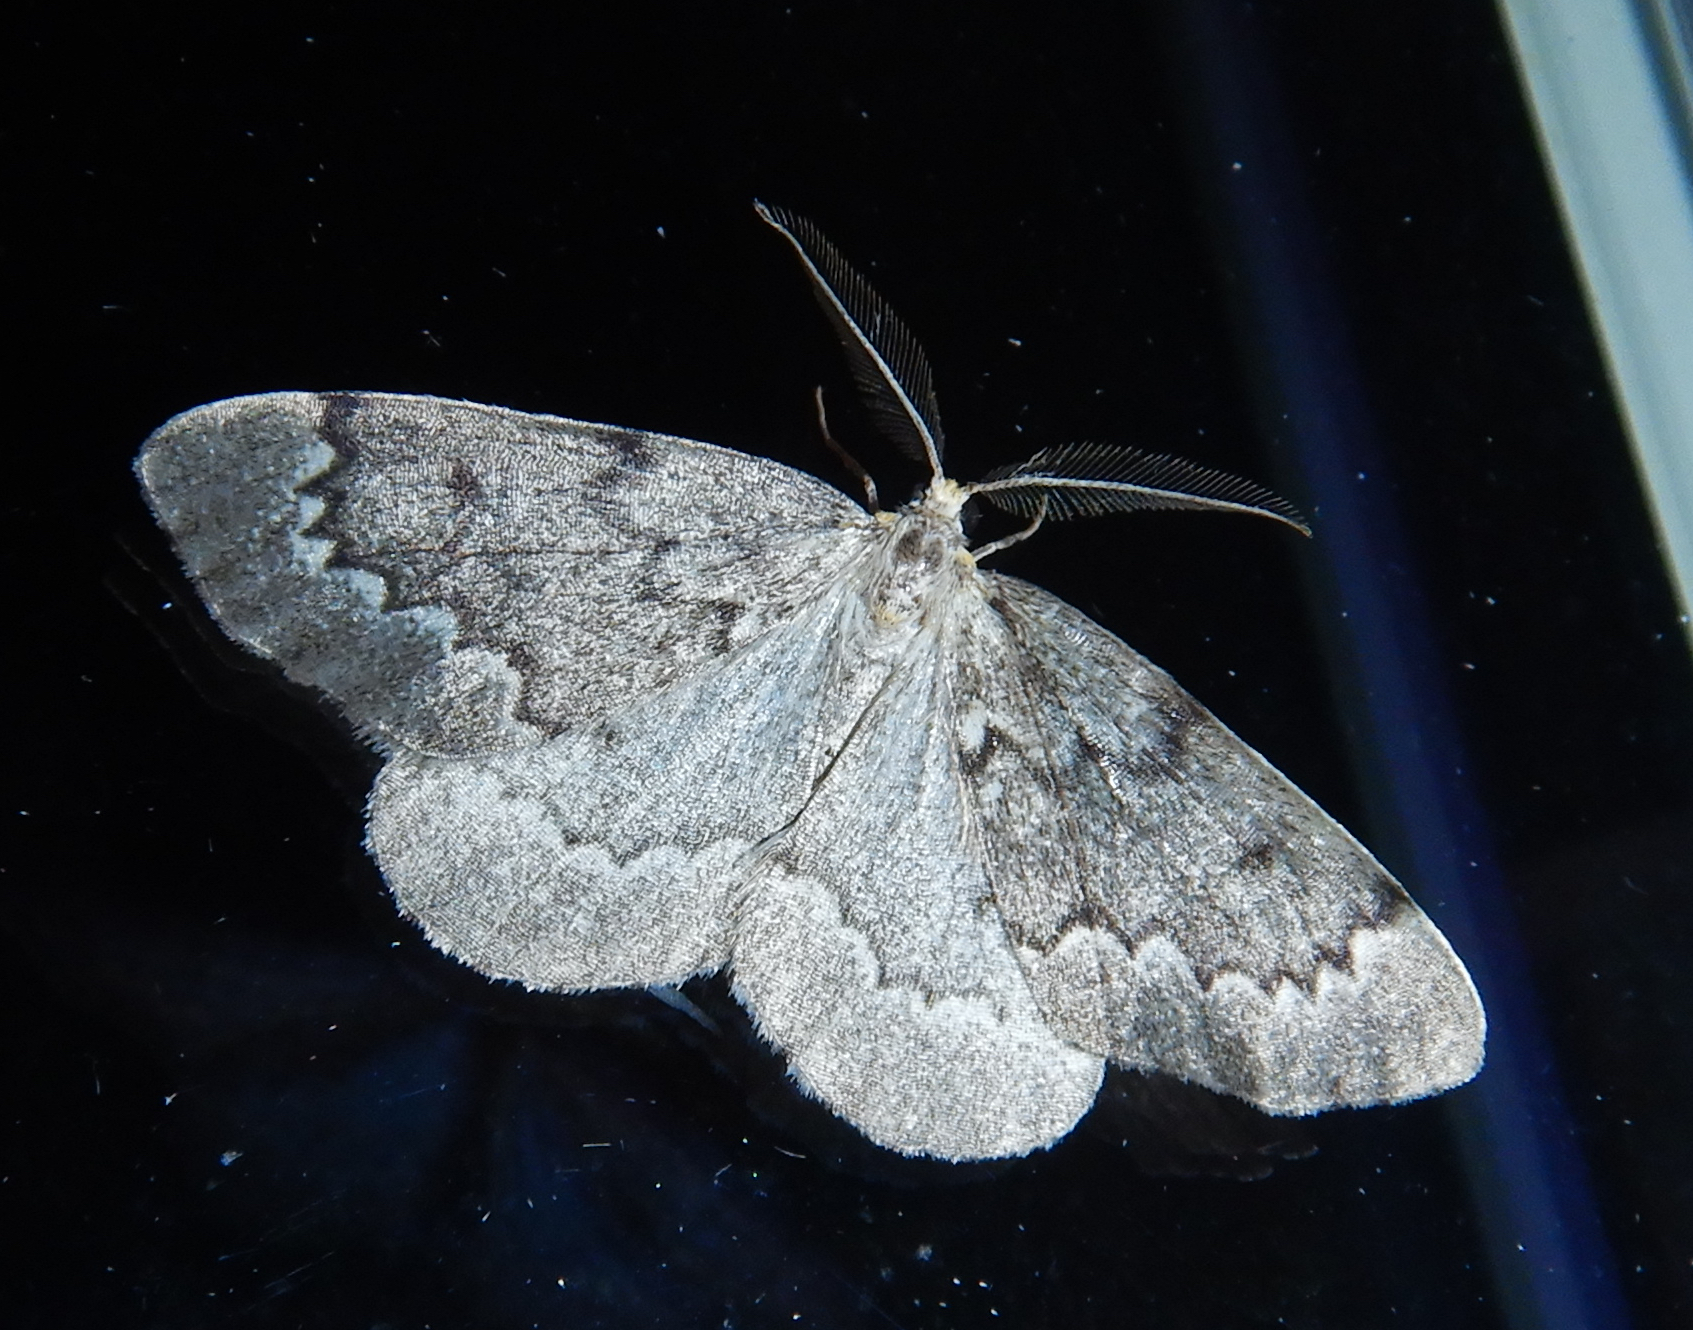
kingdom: Animalia
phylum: Arthropoda
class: Insecta
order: Lepidoptera
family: Geometridae
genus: Nepytia
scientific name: Nepytia canosaria
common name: False hemlock looper
